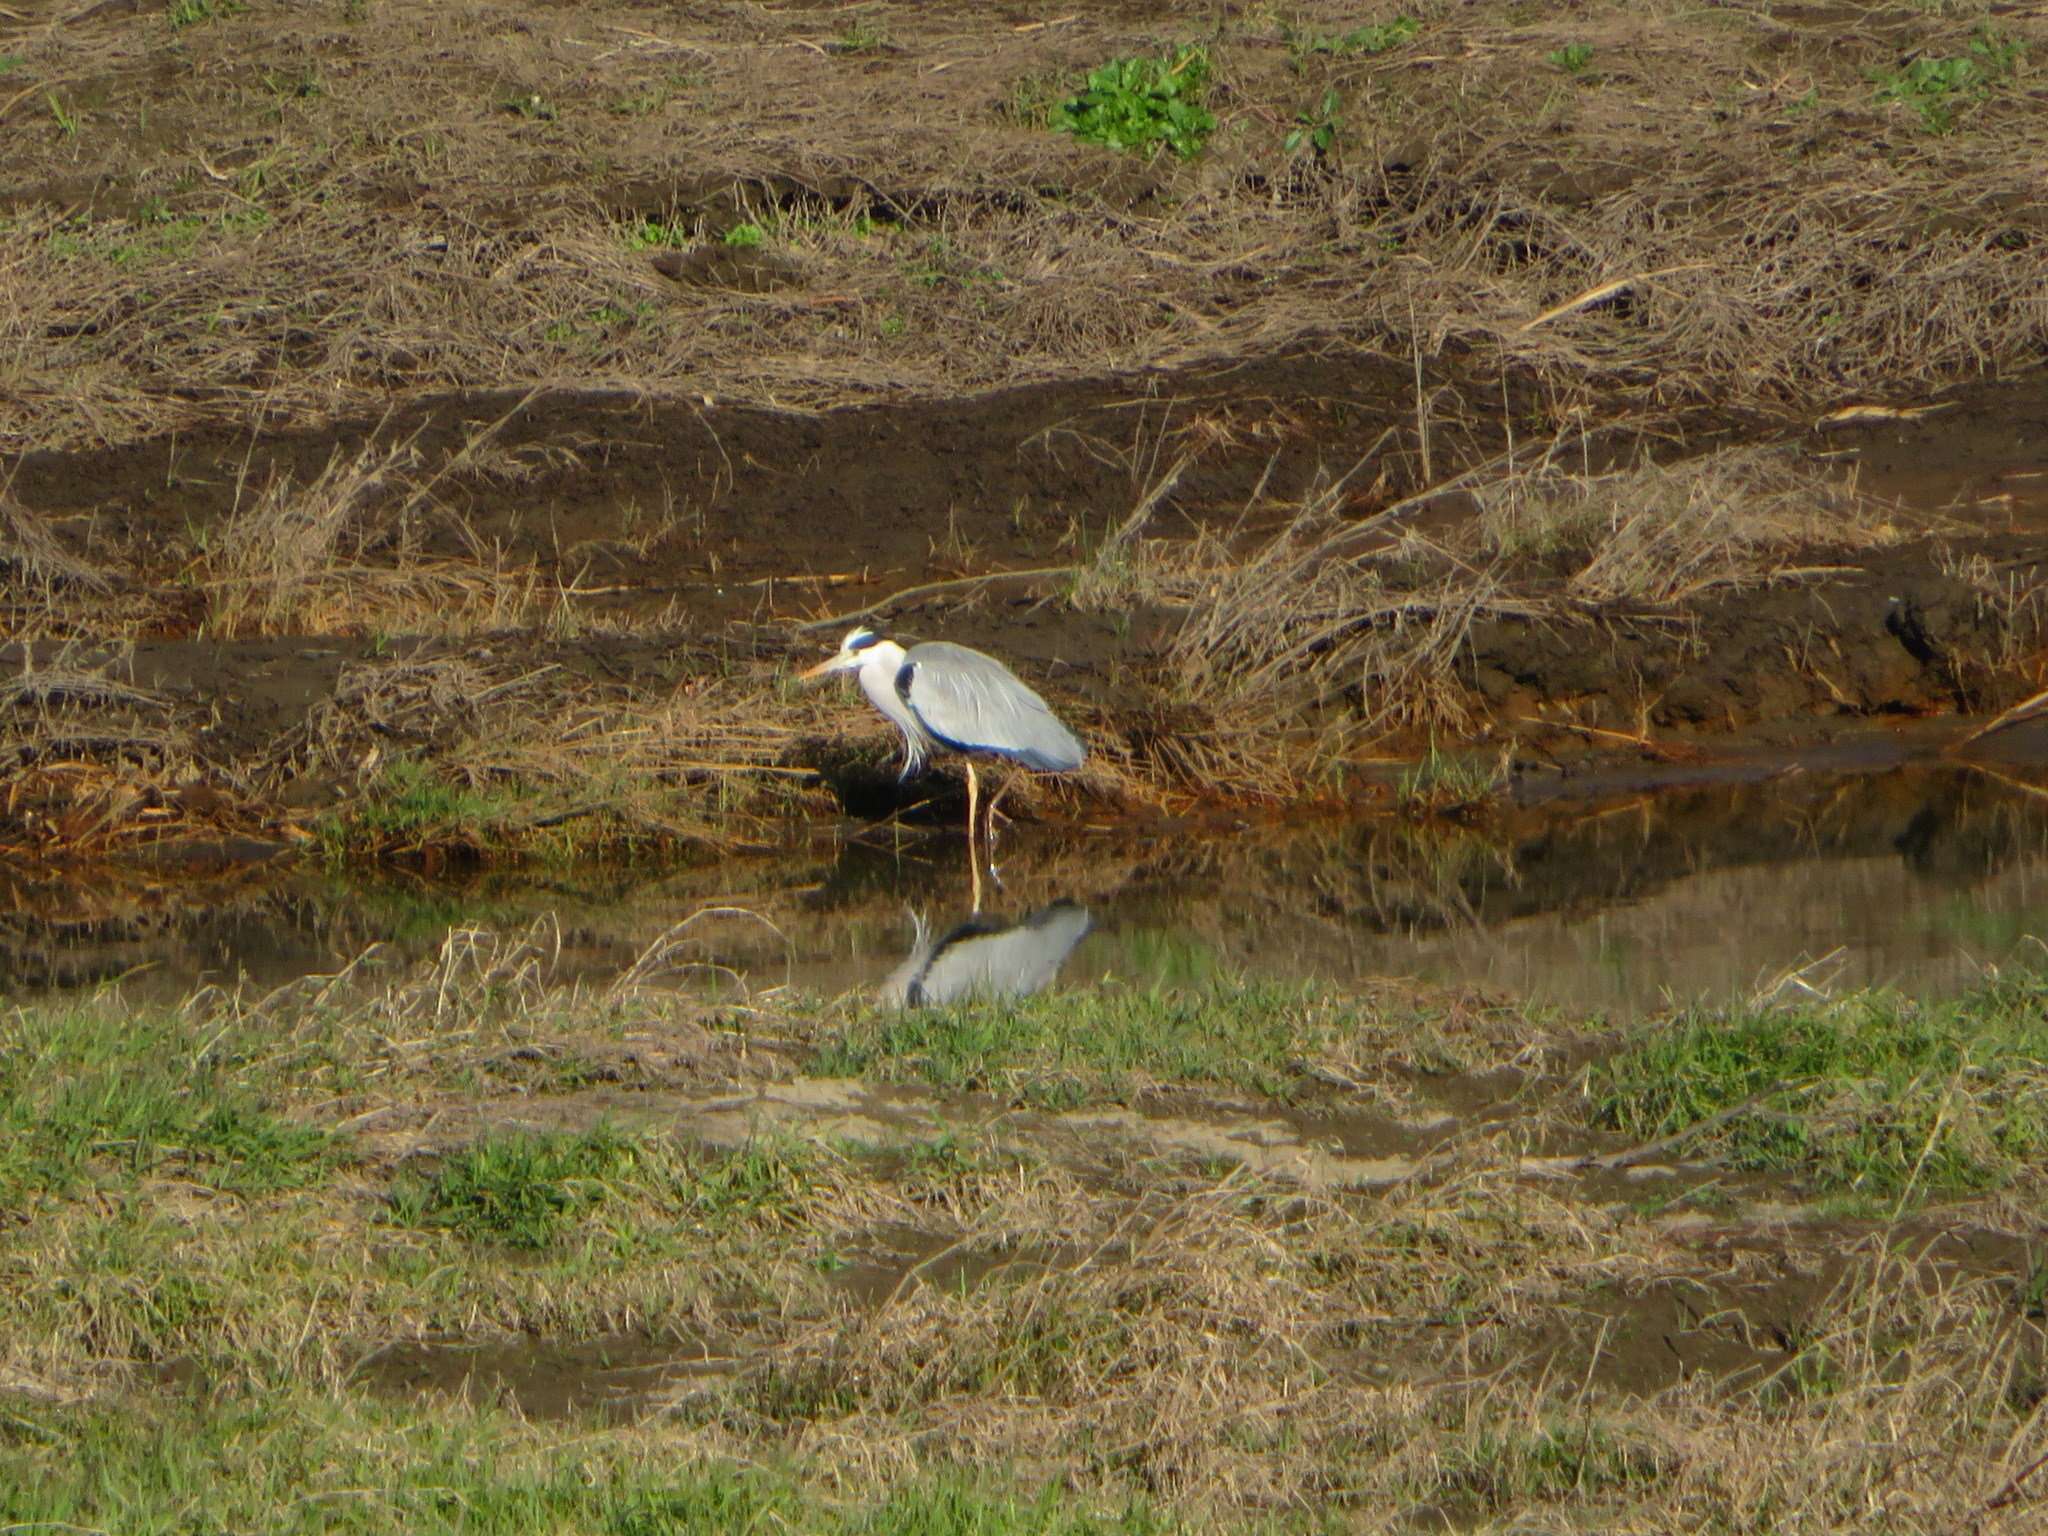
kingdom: Animalia
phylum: Chordata
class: Aves
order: Pelecaniformes
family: Ardeidae
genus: Ardea
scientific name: Ardea cinerea
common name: Grey heron
